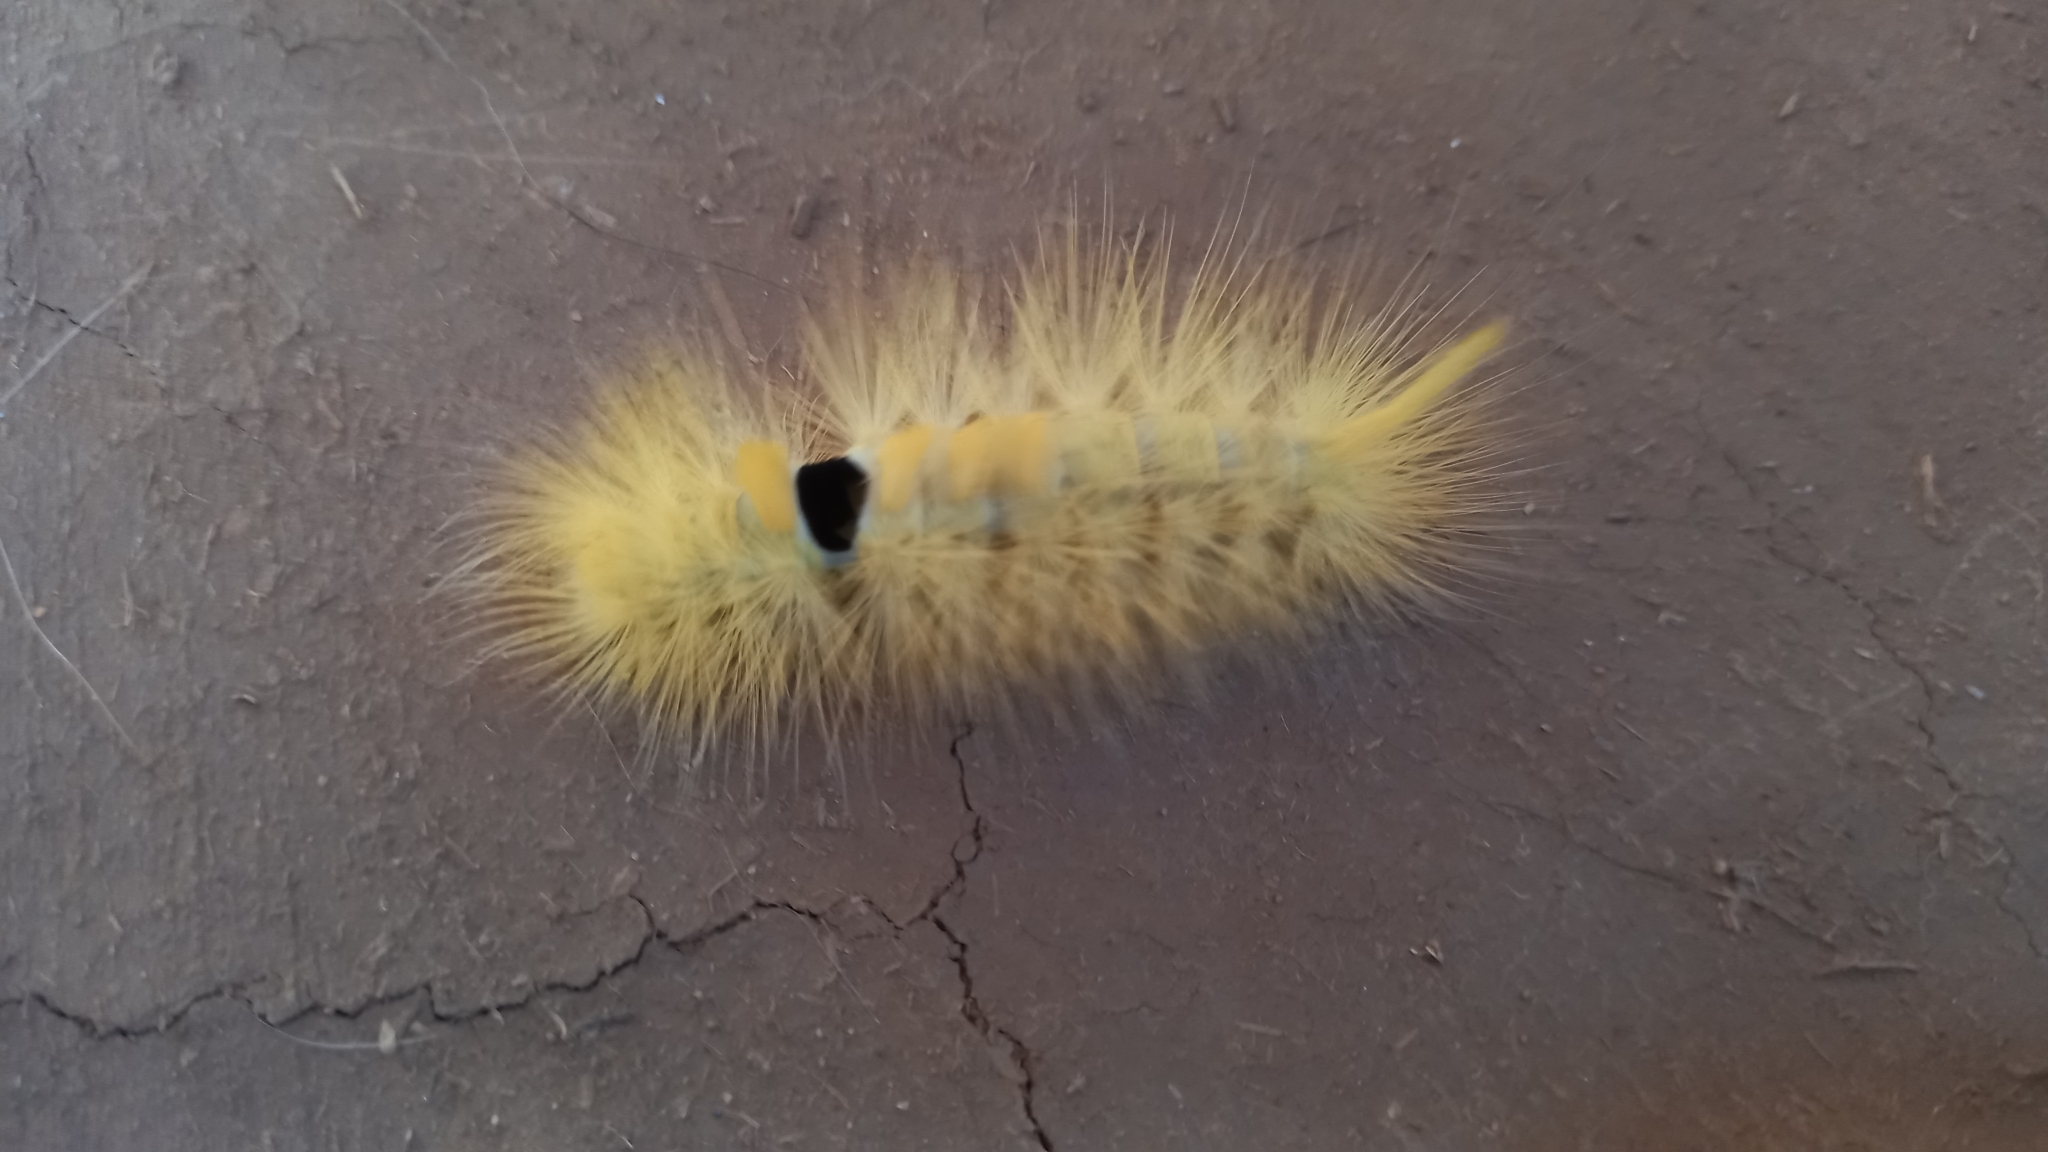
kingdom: Animalia
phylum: Arthropoda
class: Insecta
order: Lepidoptera
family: Erebidae
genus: Calliteara
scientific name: Calliteara grotei
